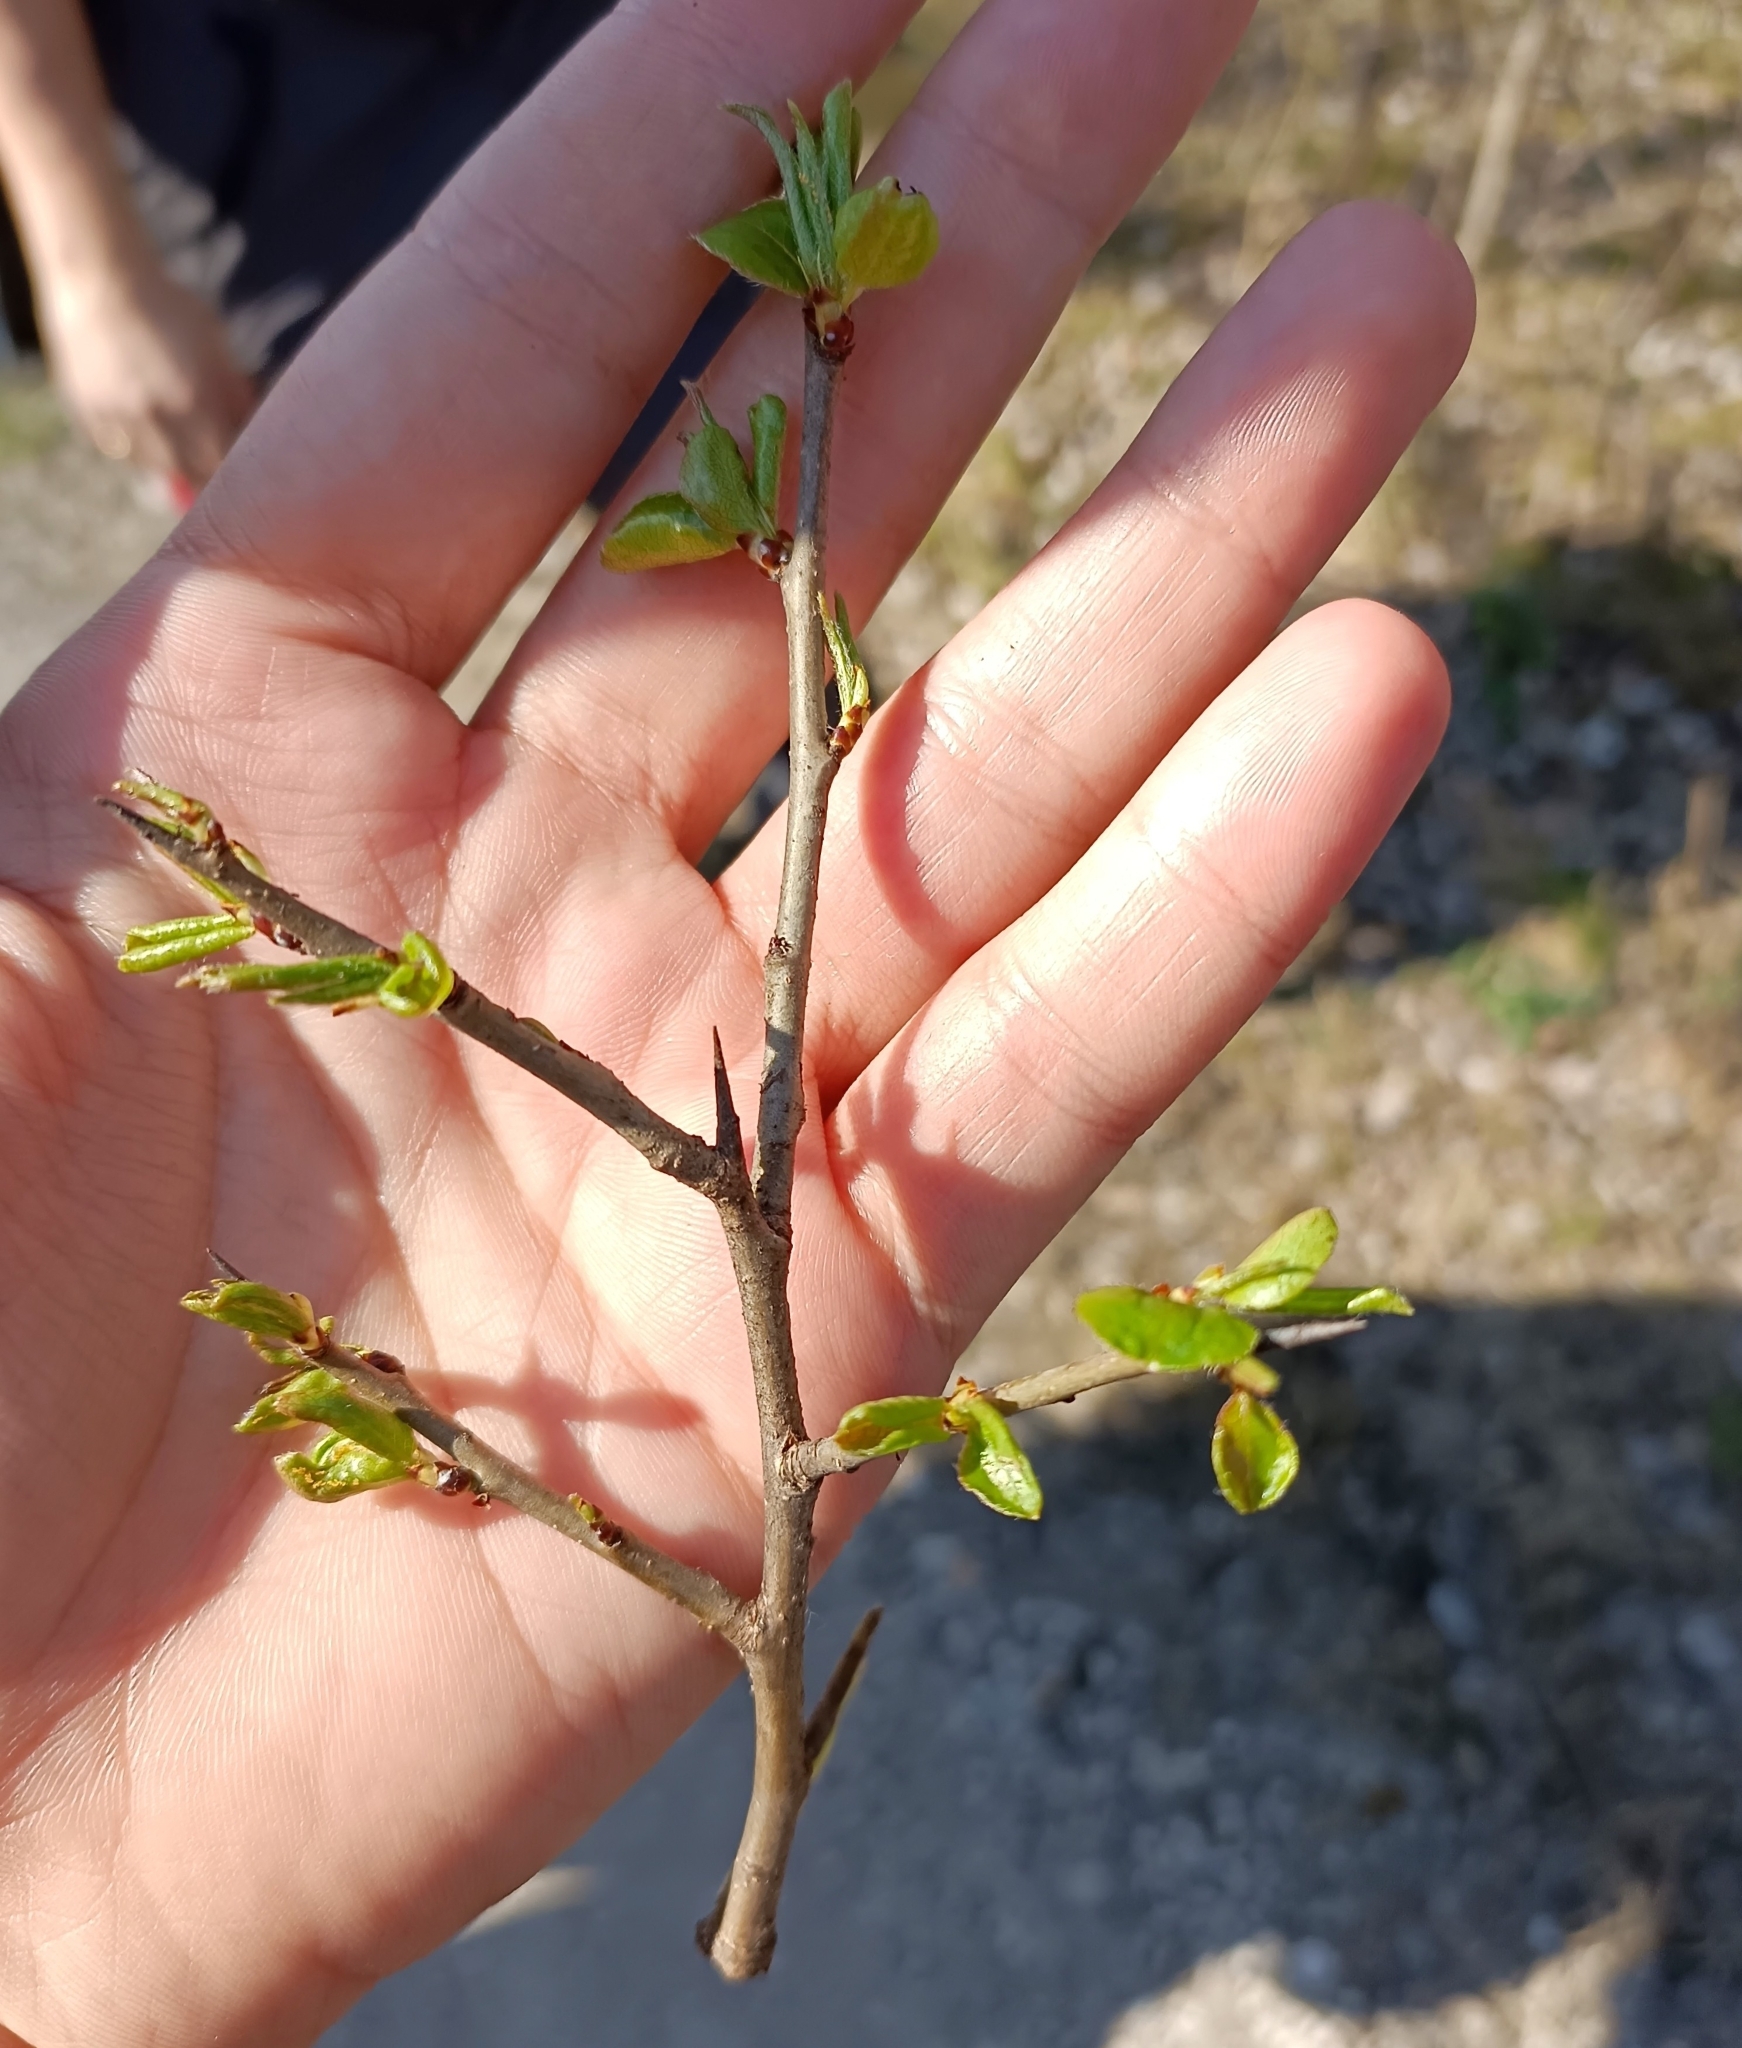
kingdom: Plantae
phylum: Tracheophyta
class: Magnoliopsida
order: Rosales
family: Rosaceae
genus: Malus
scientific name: Malus sylvestris
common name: Crab apple
